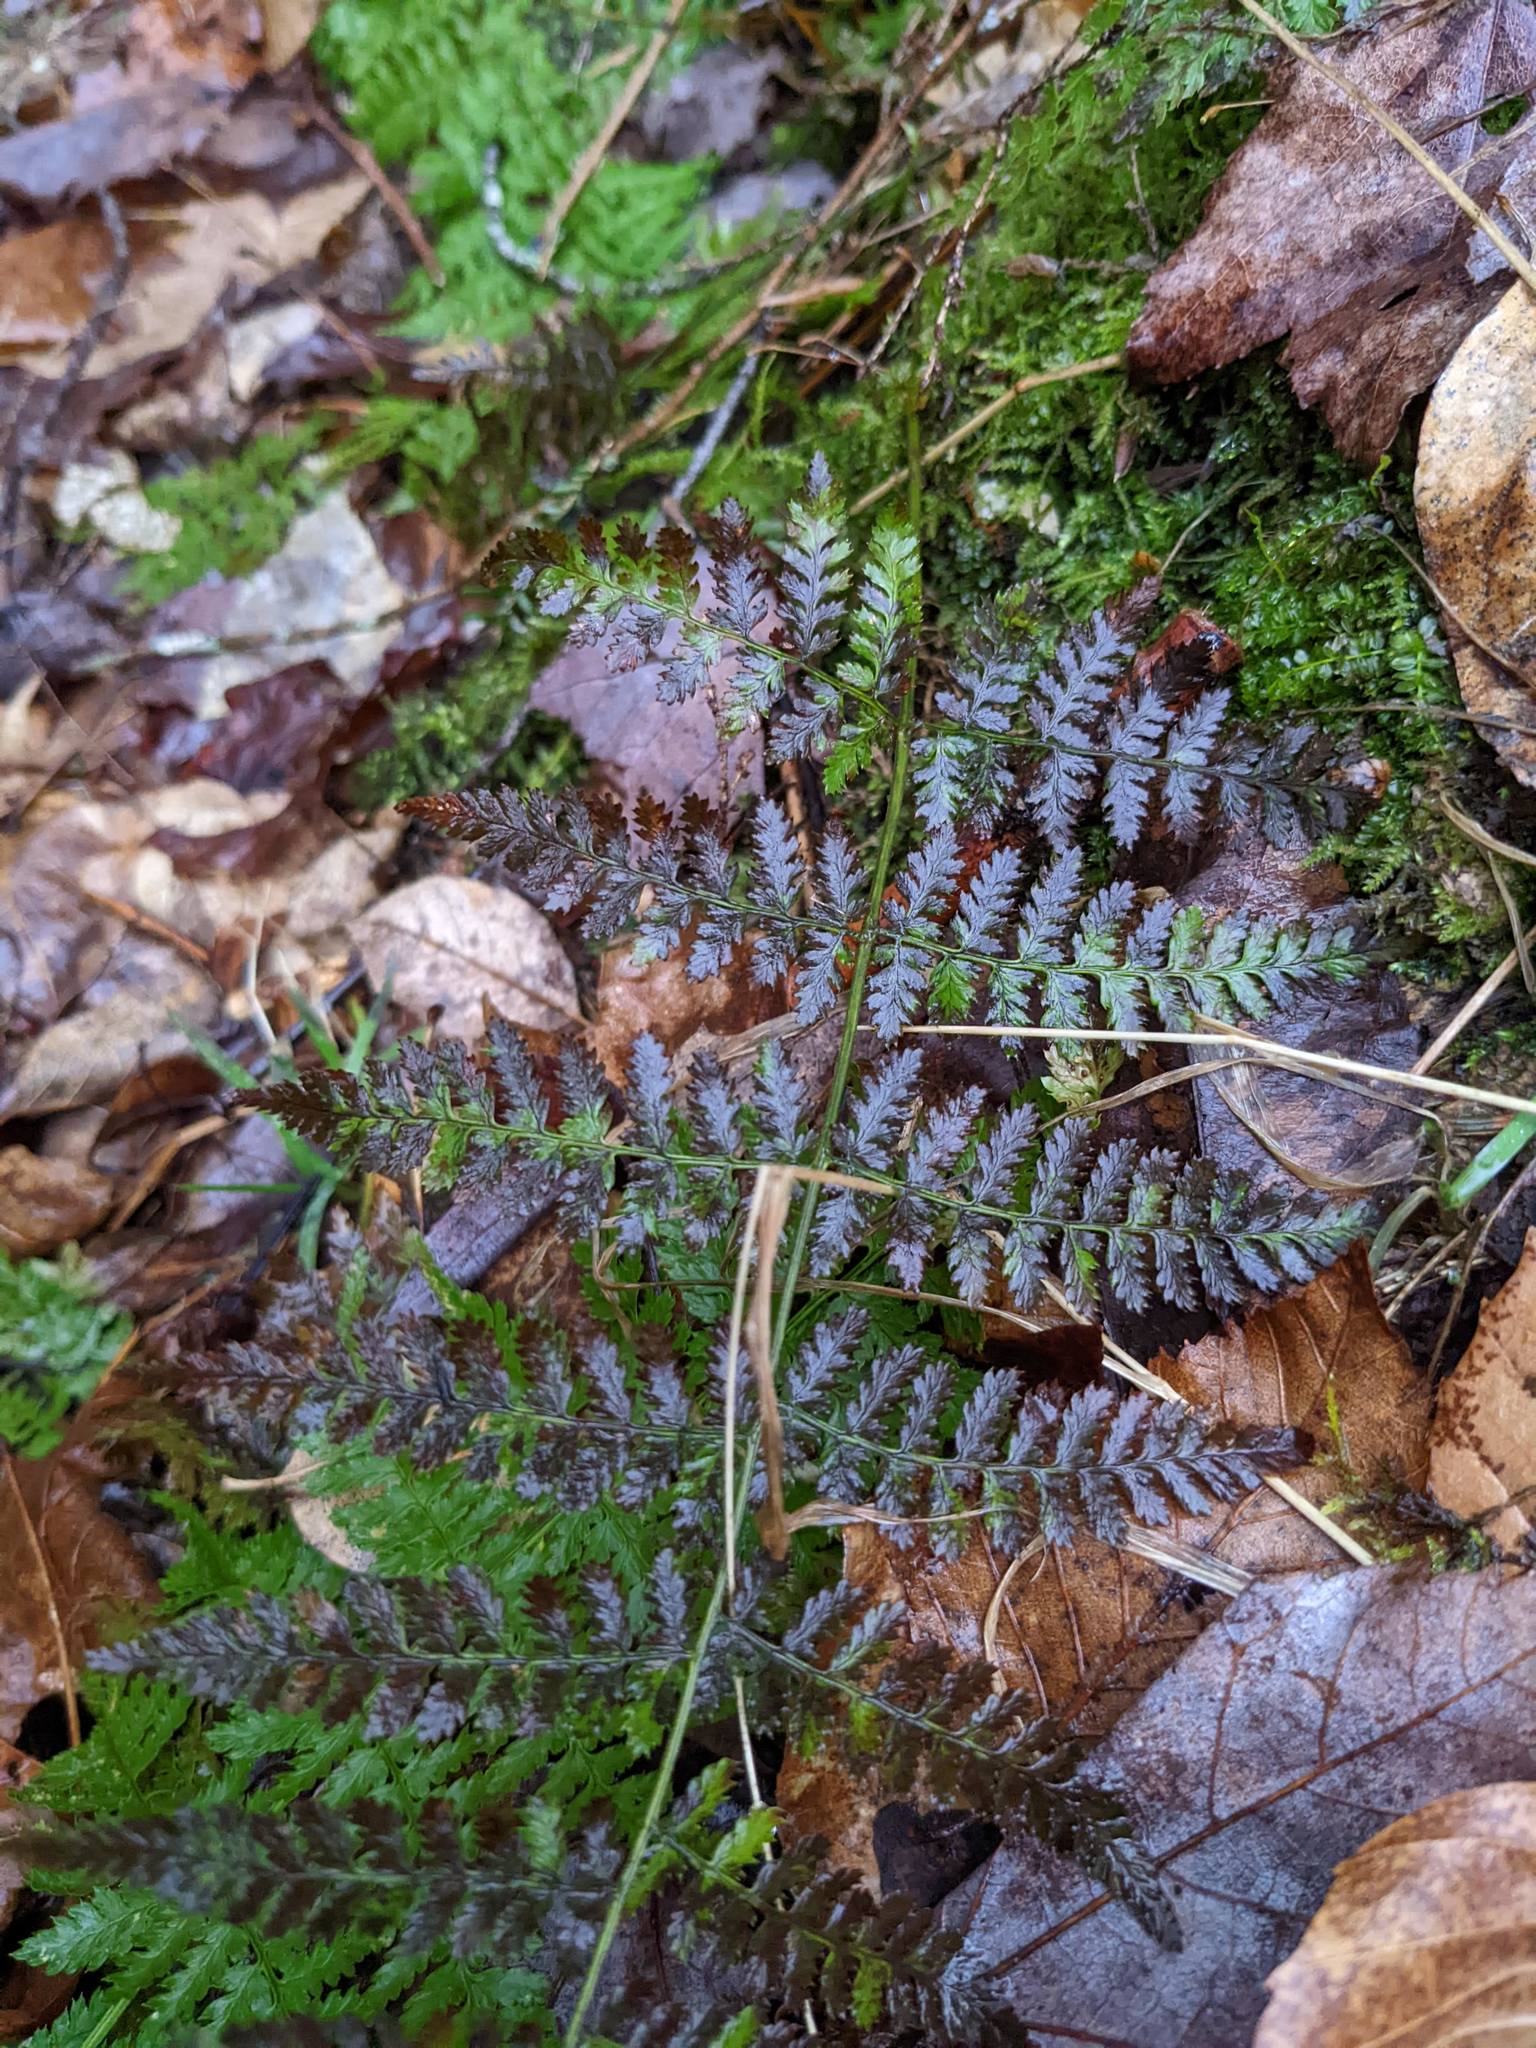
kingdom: Plantae
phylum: Tracheophyta
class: Polypodiopsida
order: Polypodiales
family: Dryopteridaceae
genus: Dryopteris
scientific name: Dryopteris intermedia
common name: Evergreen wood fern
